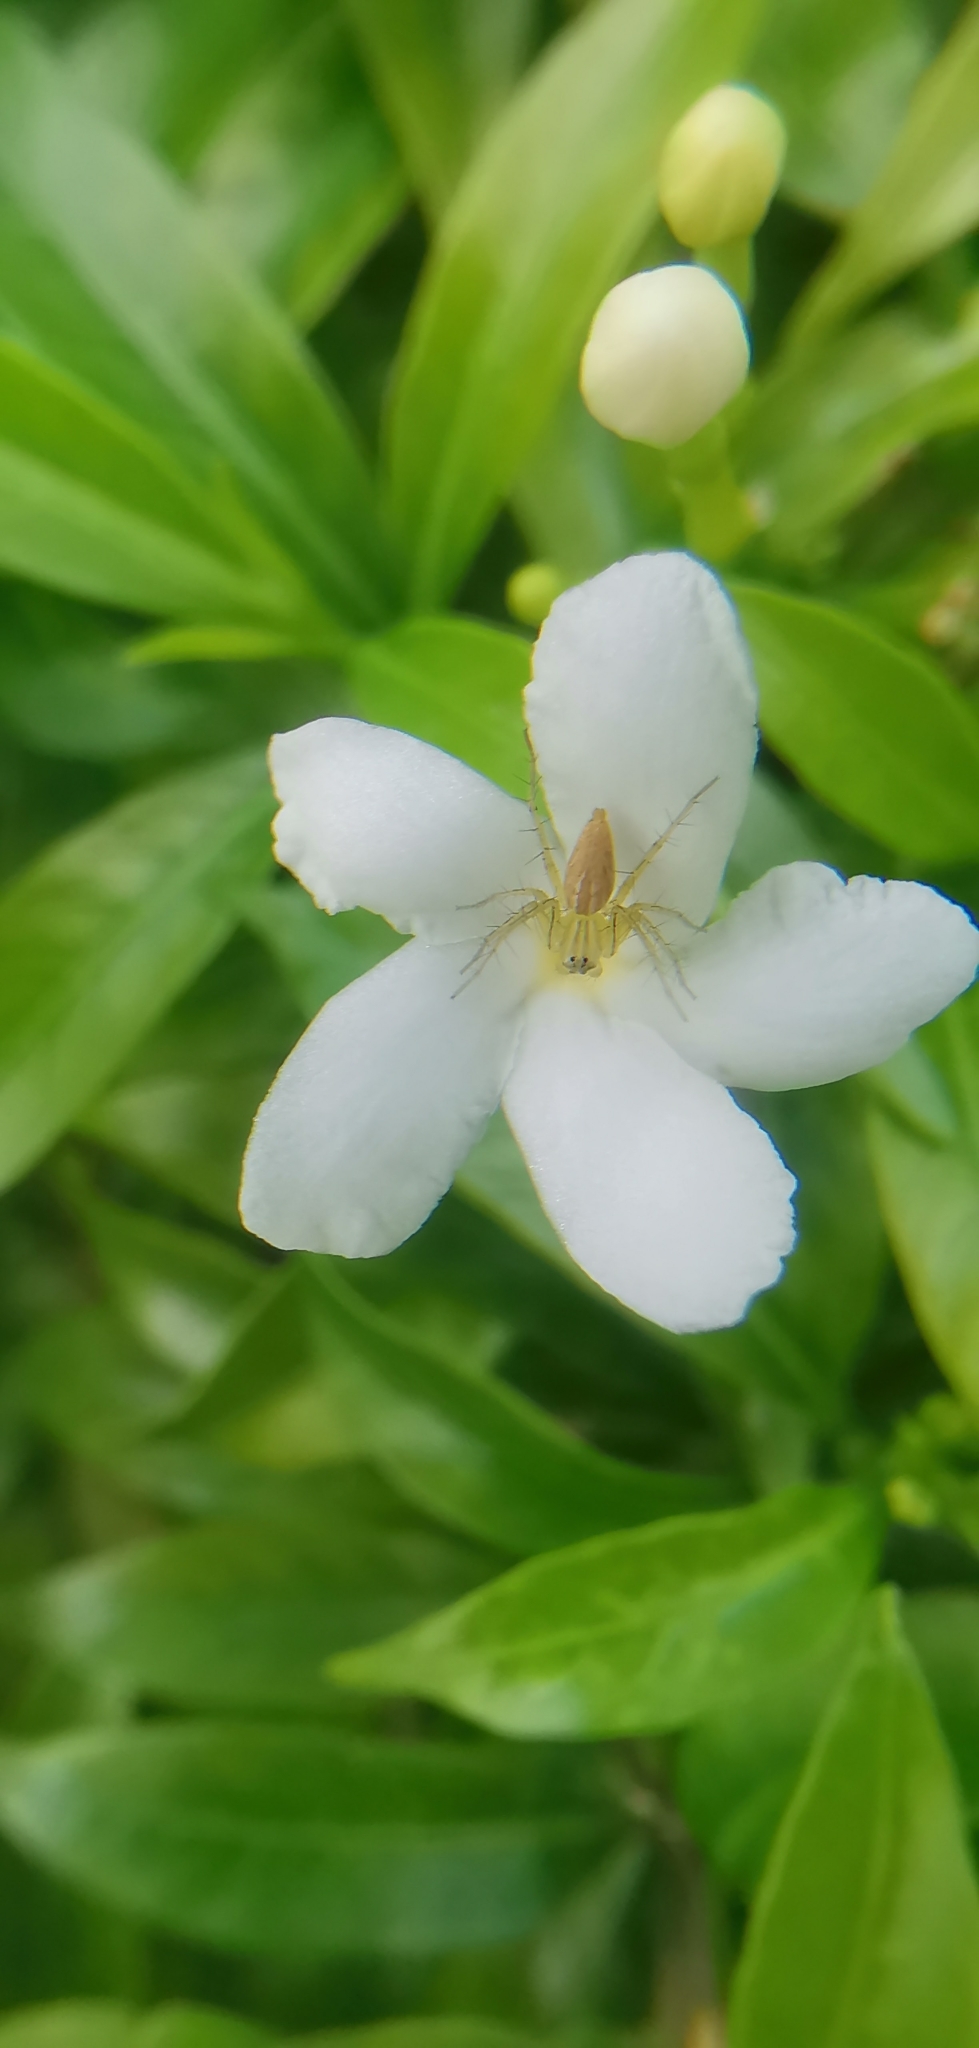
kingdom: Animalia
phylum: Arthropoda
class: Arachnida
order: Araneae
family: Oxyopidae
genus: Oxyopes
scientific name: Oxyopes
